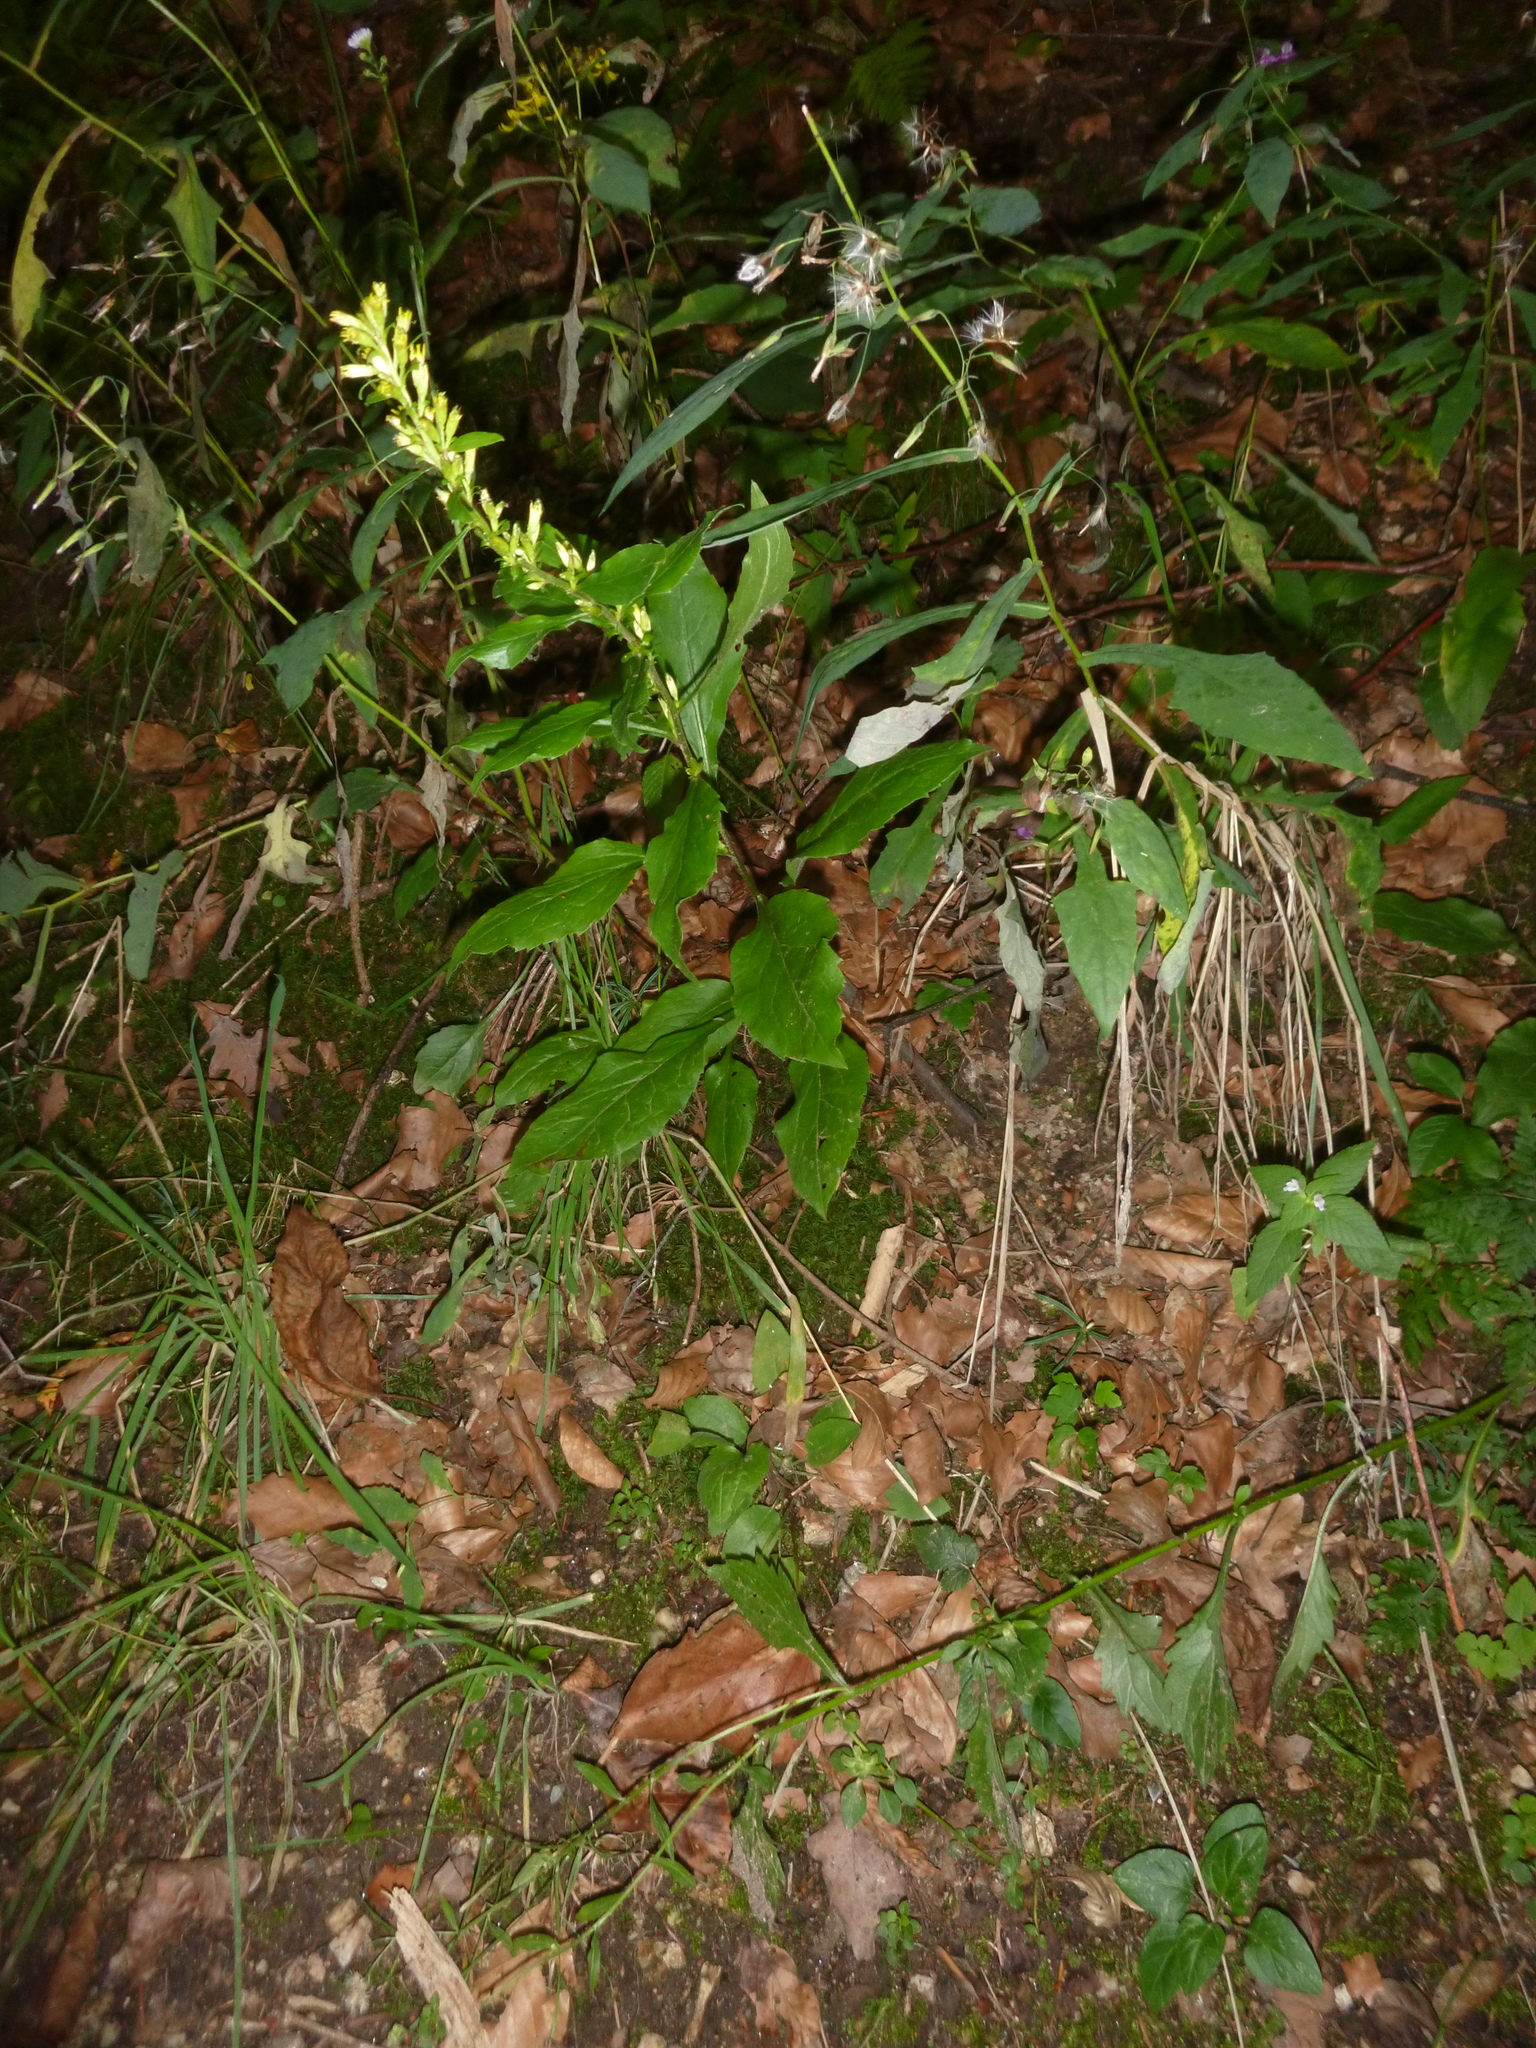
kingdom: Plantae
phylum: Tracheophyta
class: Magnoliopsida
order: Asterales
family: Asteraceae
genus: Solidago
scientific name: Solidago virgaurea
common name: Goldenrod
